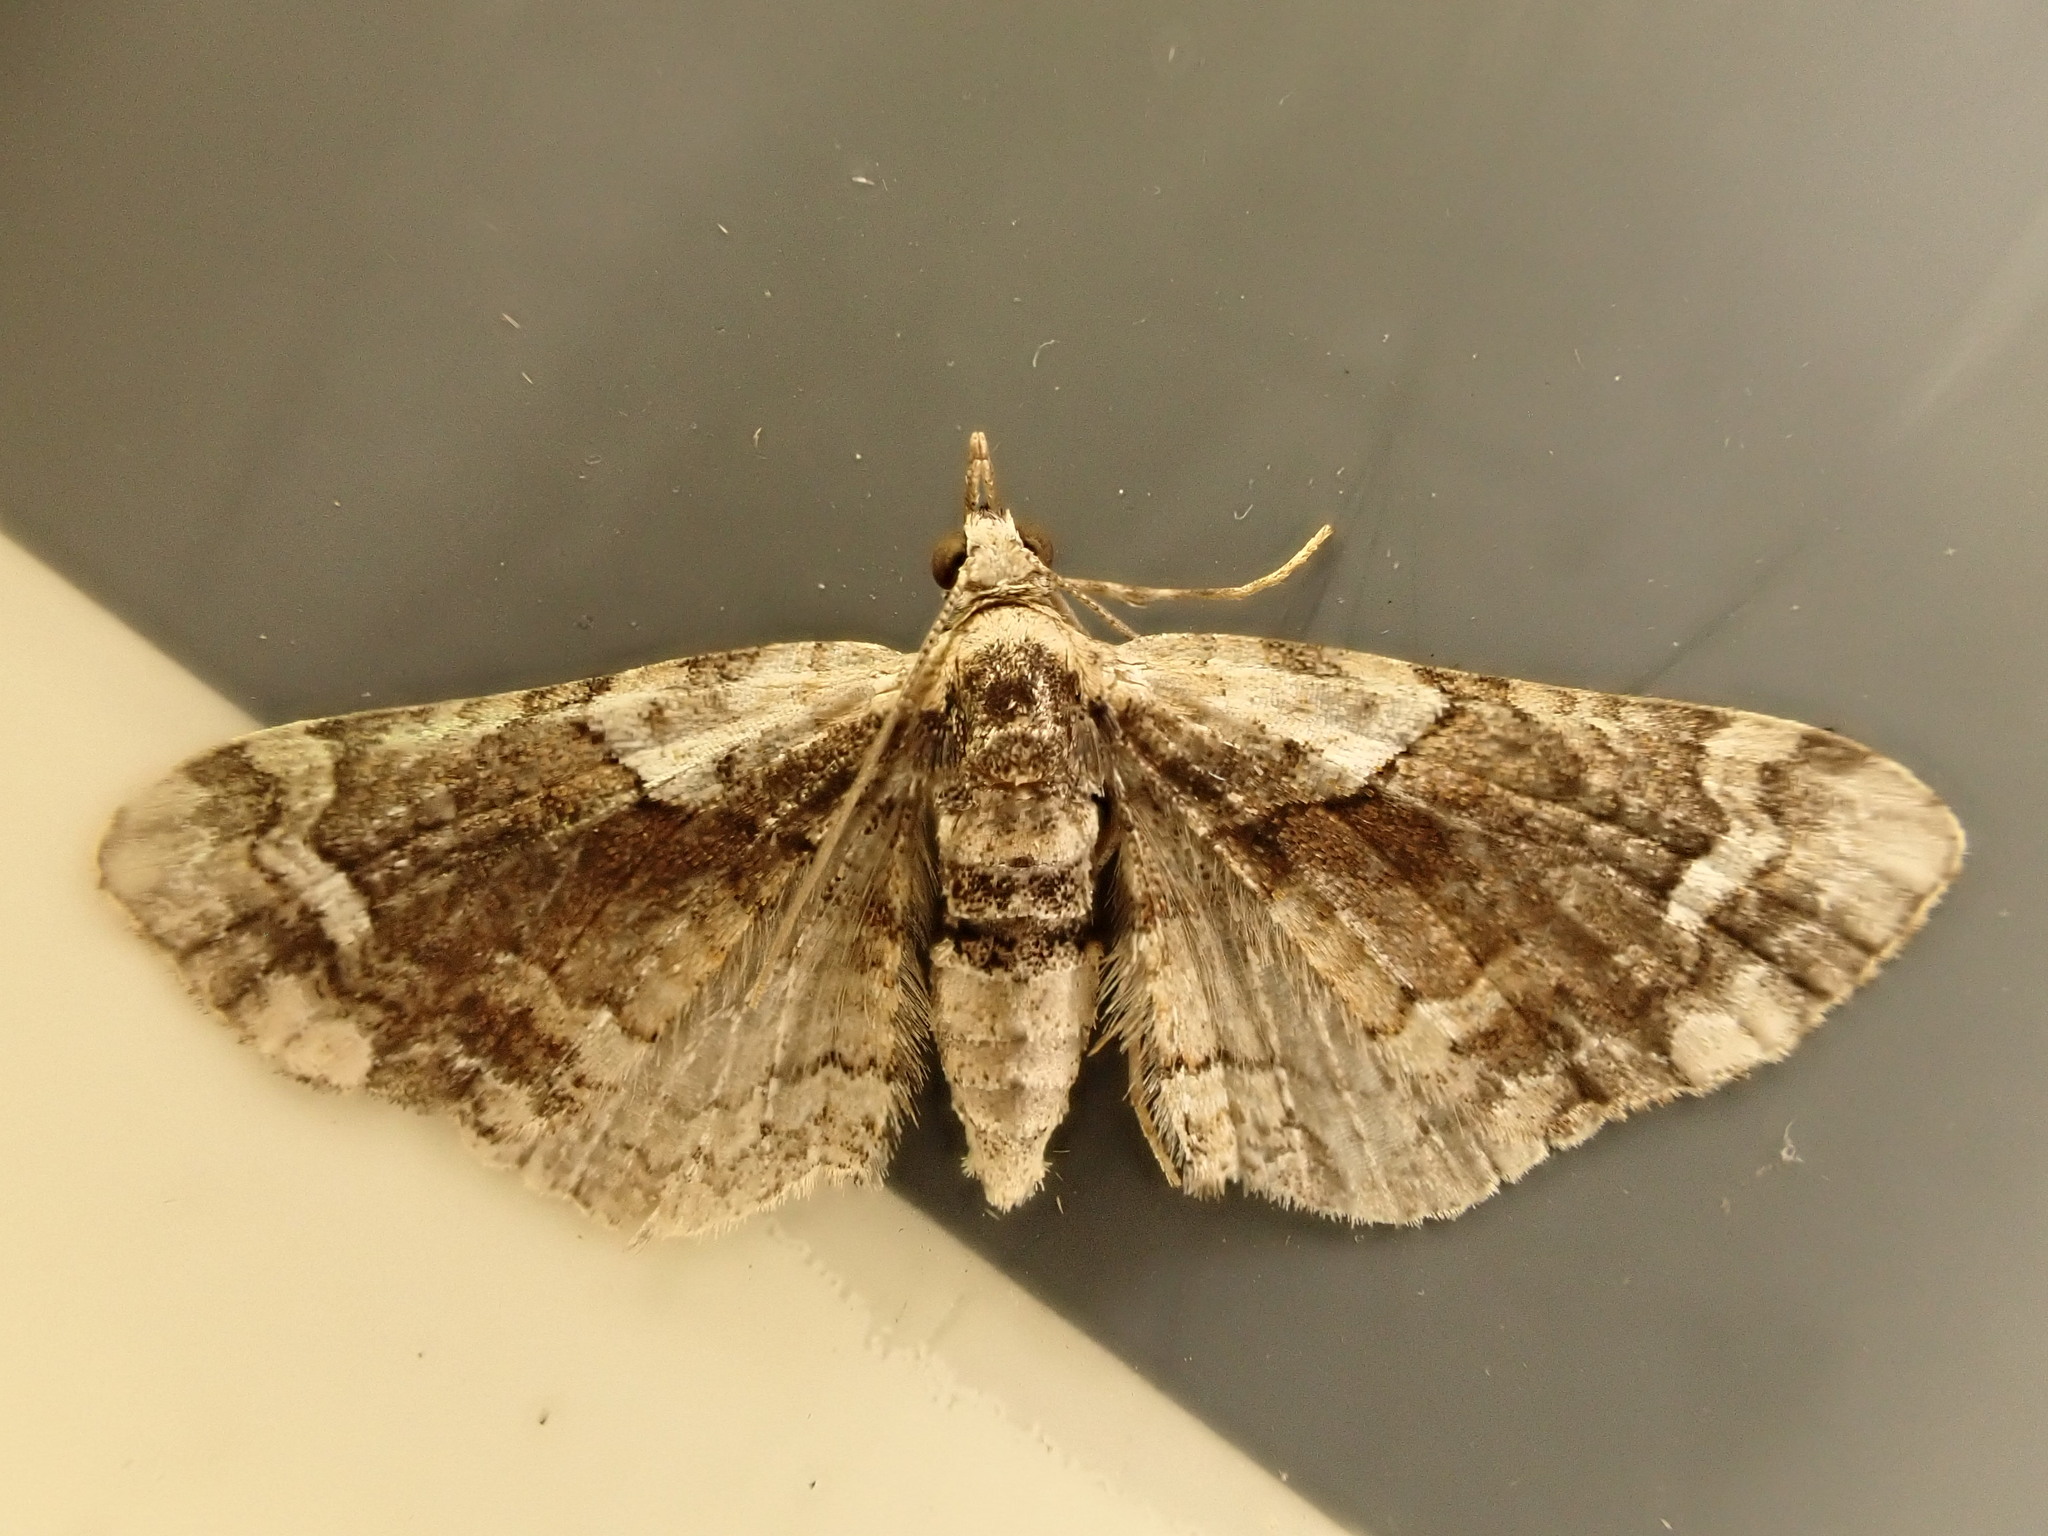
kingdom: Animalia
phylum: Arthropoda
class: Insecta
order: Lepidoptera
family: Geometridae
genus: Idaea
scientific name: Idaea mutanda
